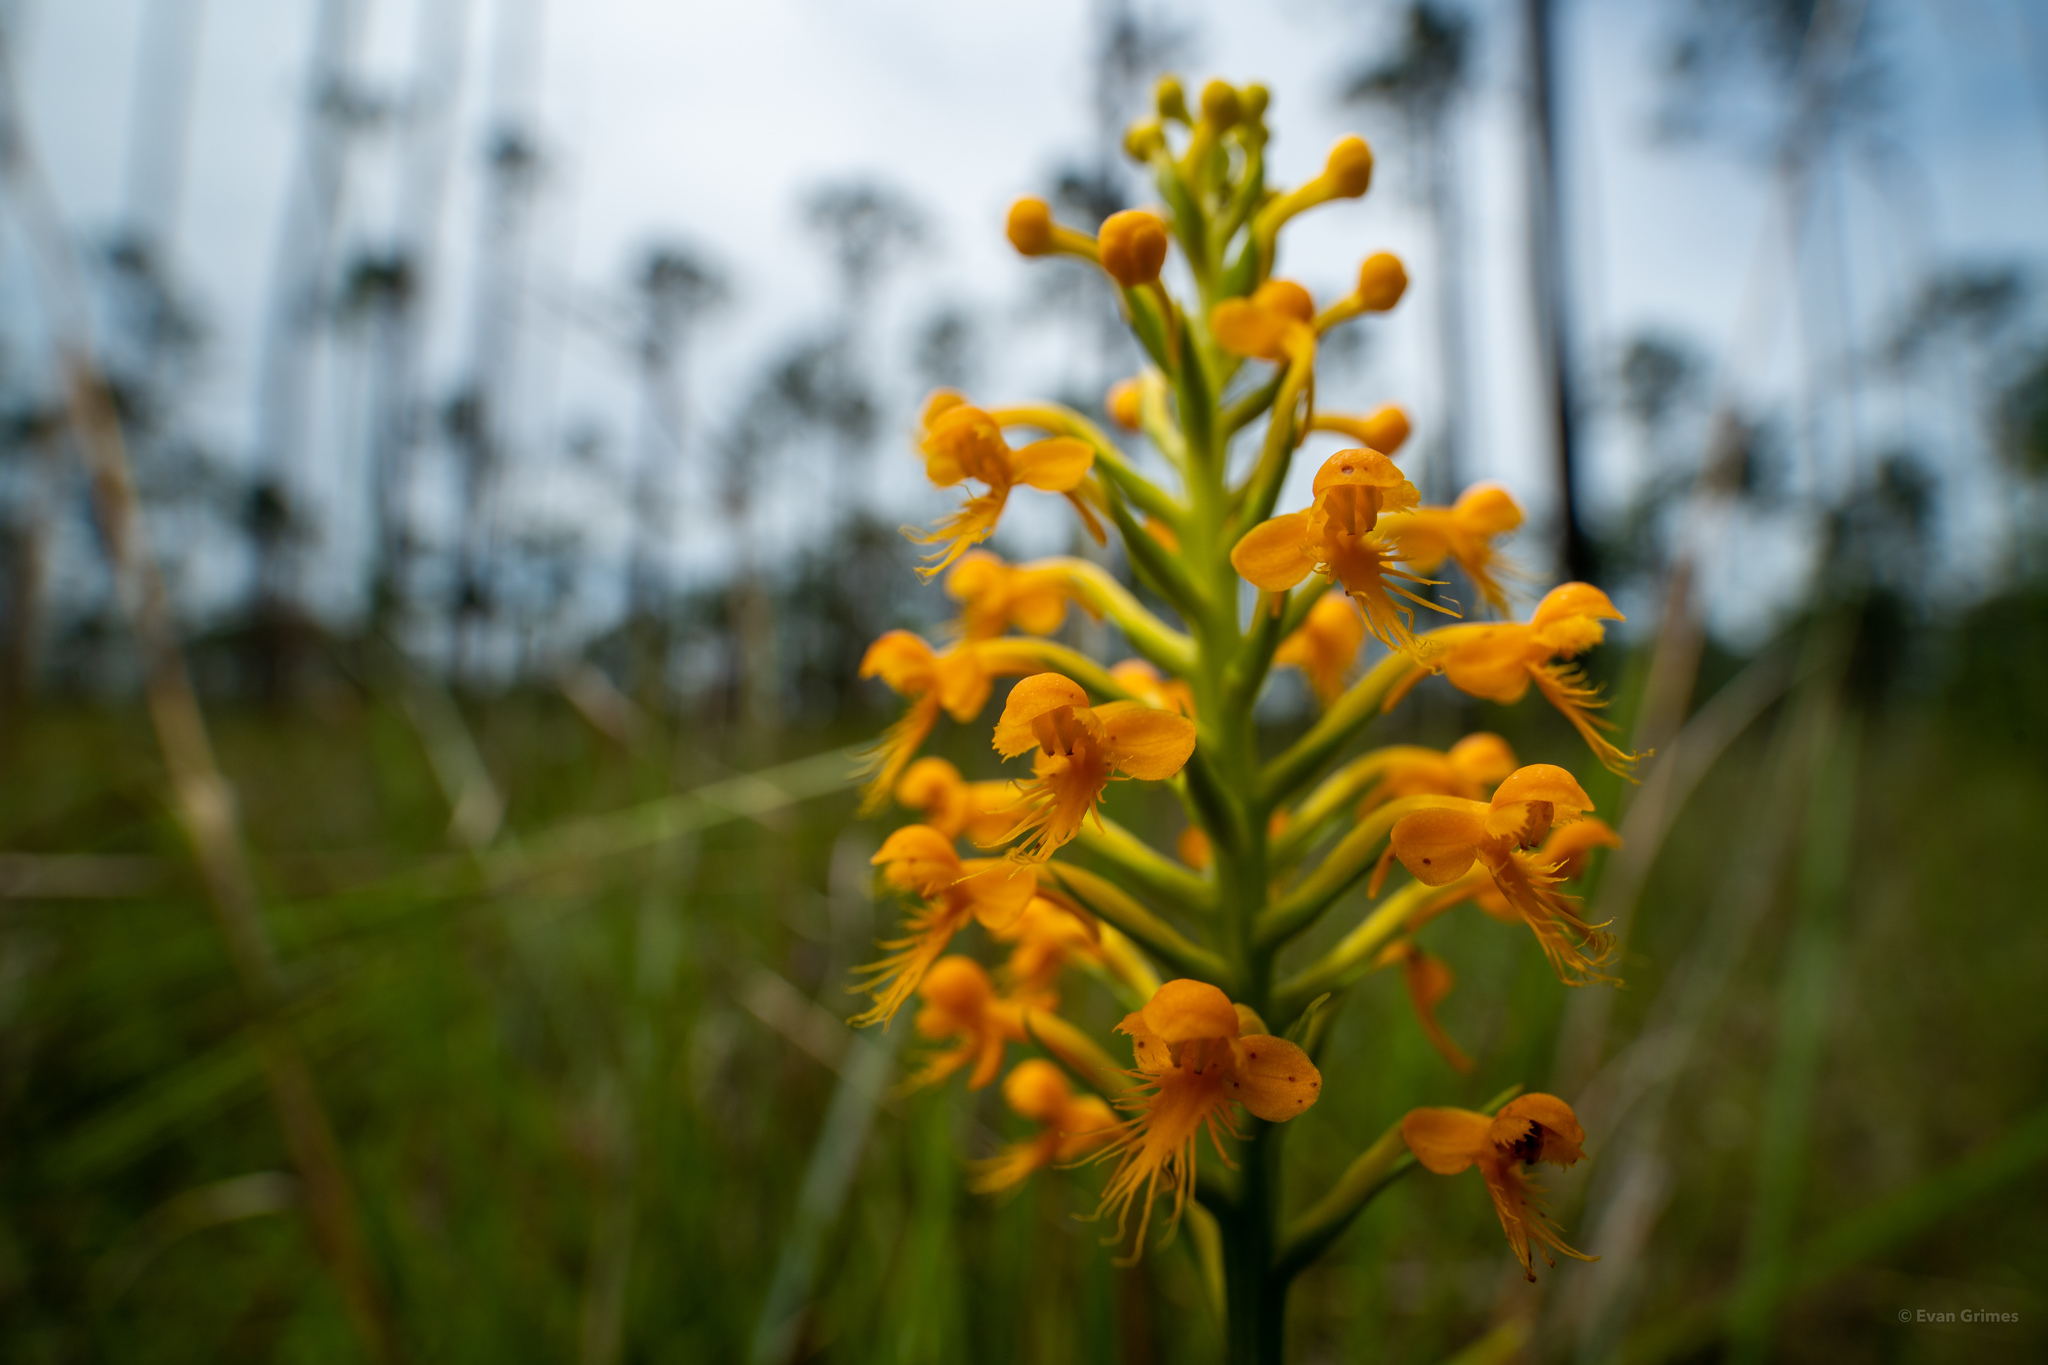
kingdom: Plantae
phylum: Tracheophyta
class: Liliopsida
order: Asparagales
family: Orchidaceae
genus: Platanthera
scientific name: Platanthera cristata
